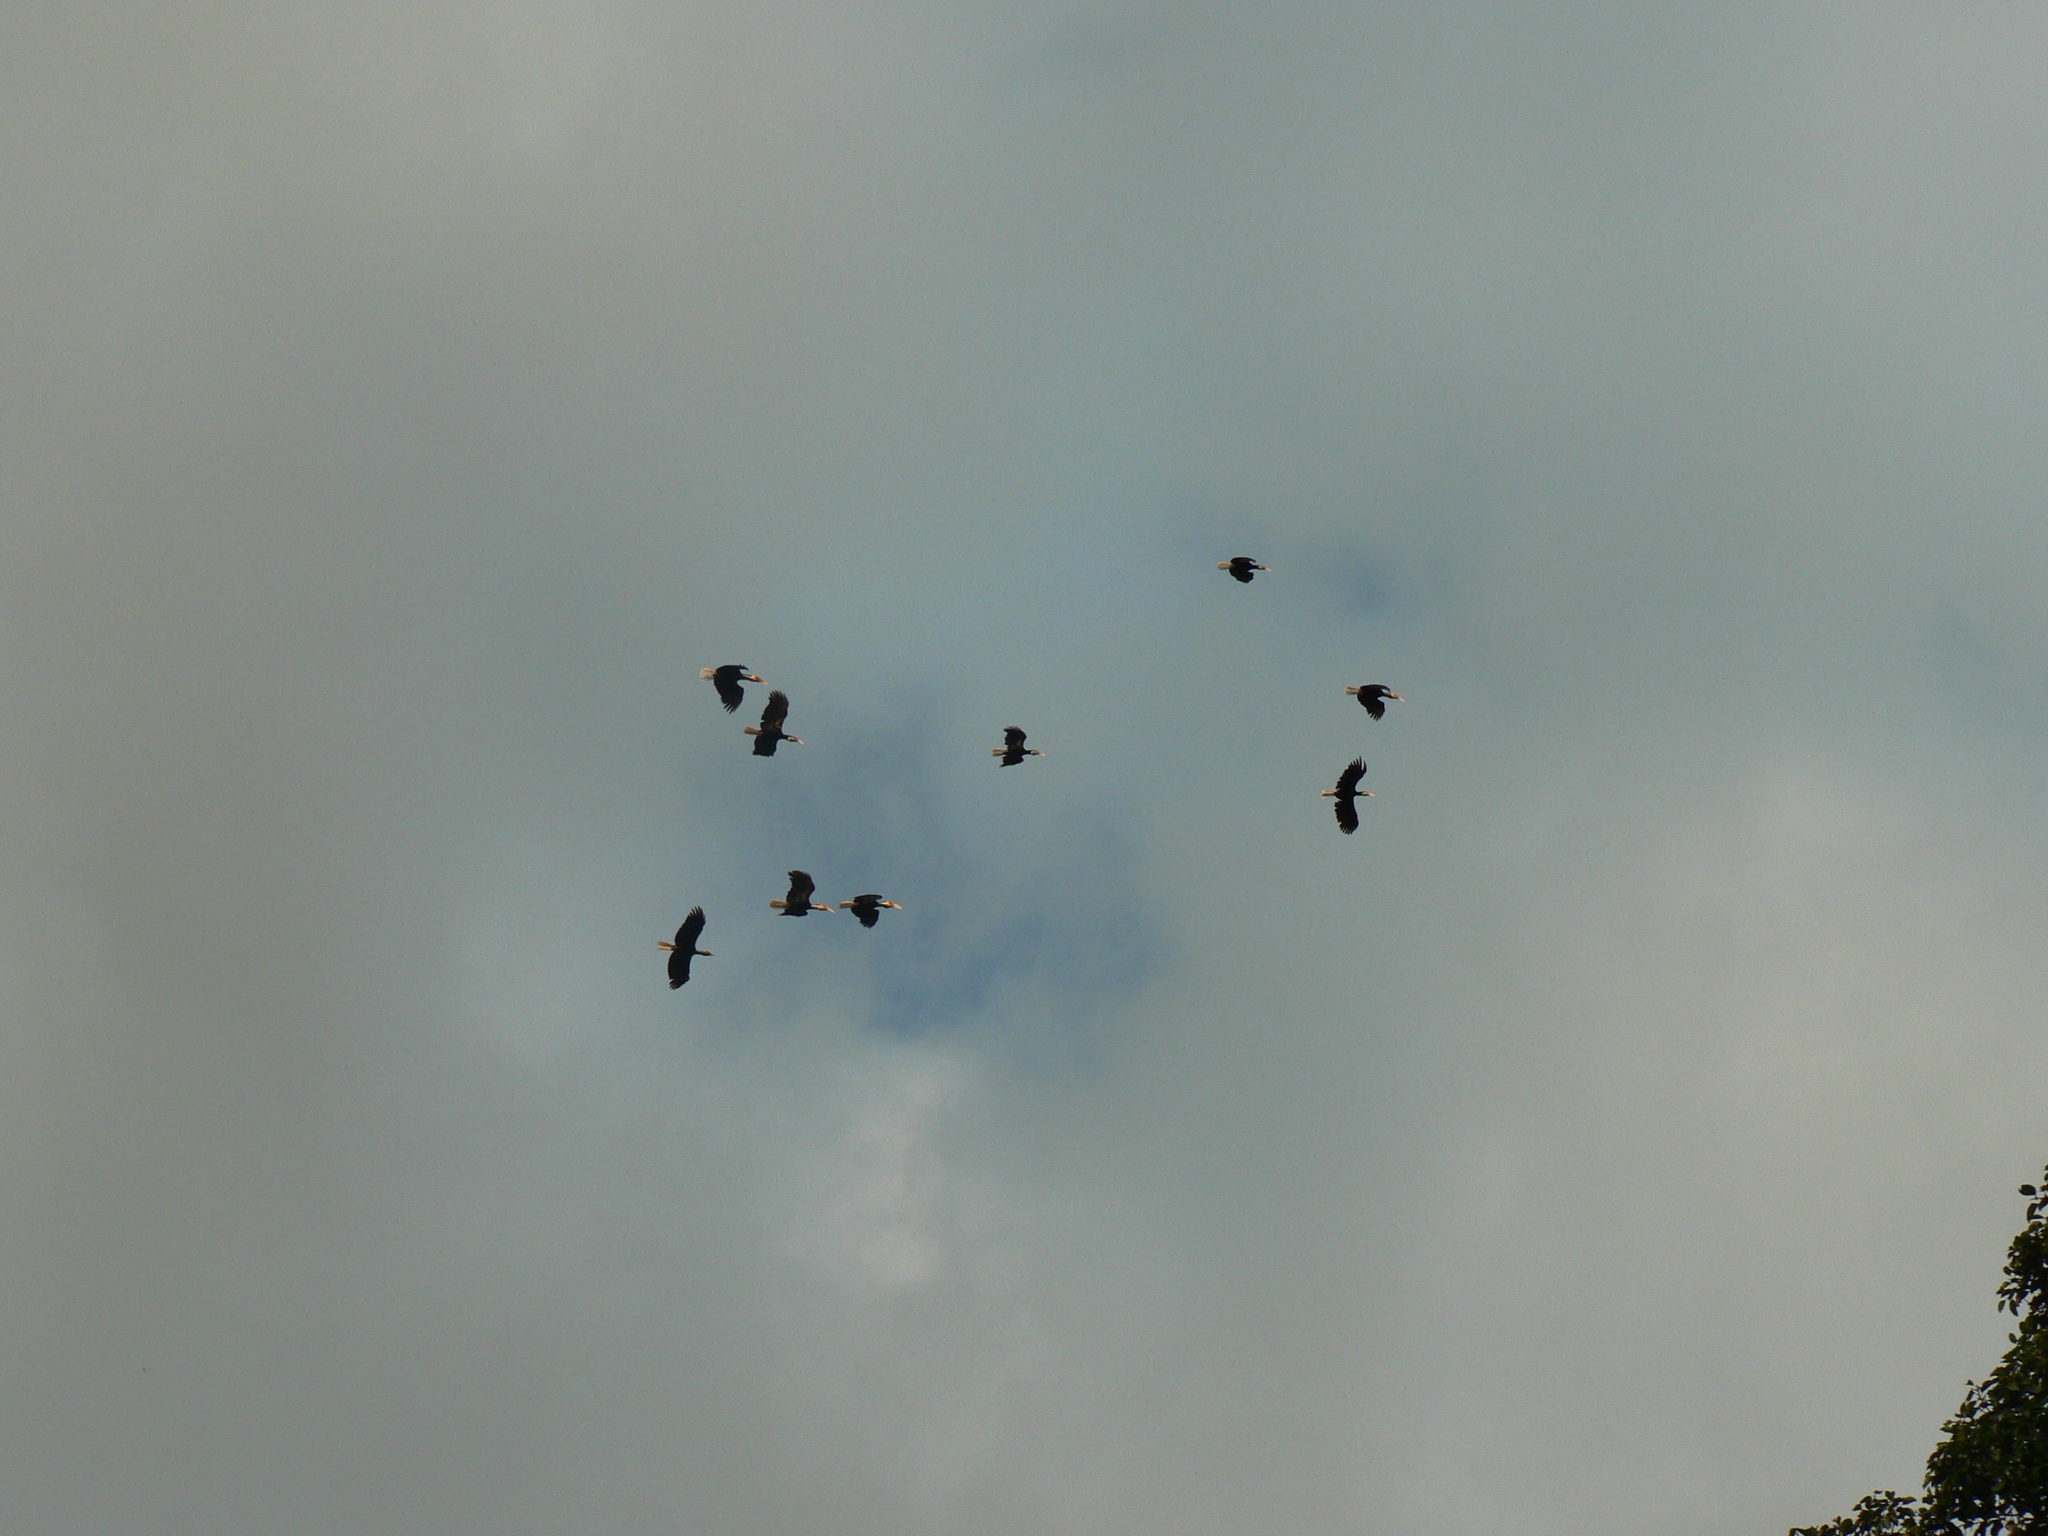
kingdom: Animalia
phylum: Chordata
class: Aves
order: Bucerotiformes
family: Bucerotidae
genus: Rhyticeros
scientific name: Rhyticeros undulatus
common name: Wreathed hornbill
